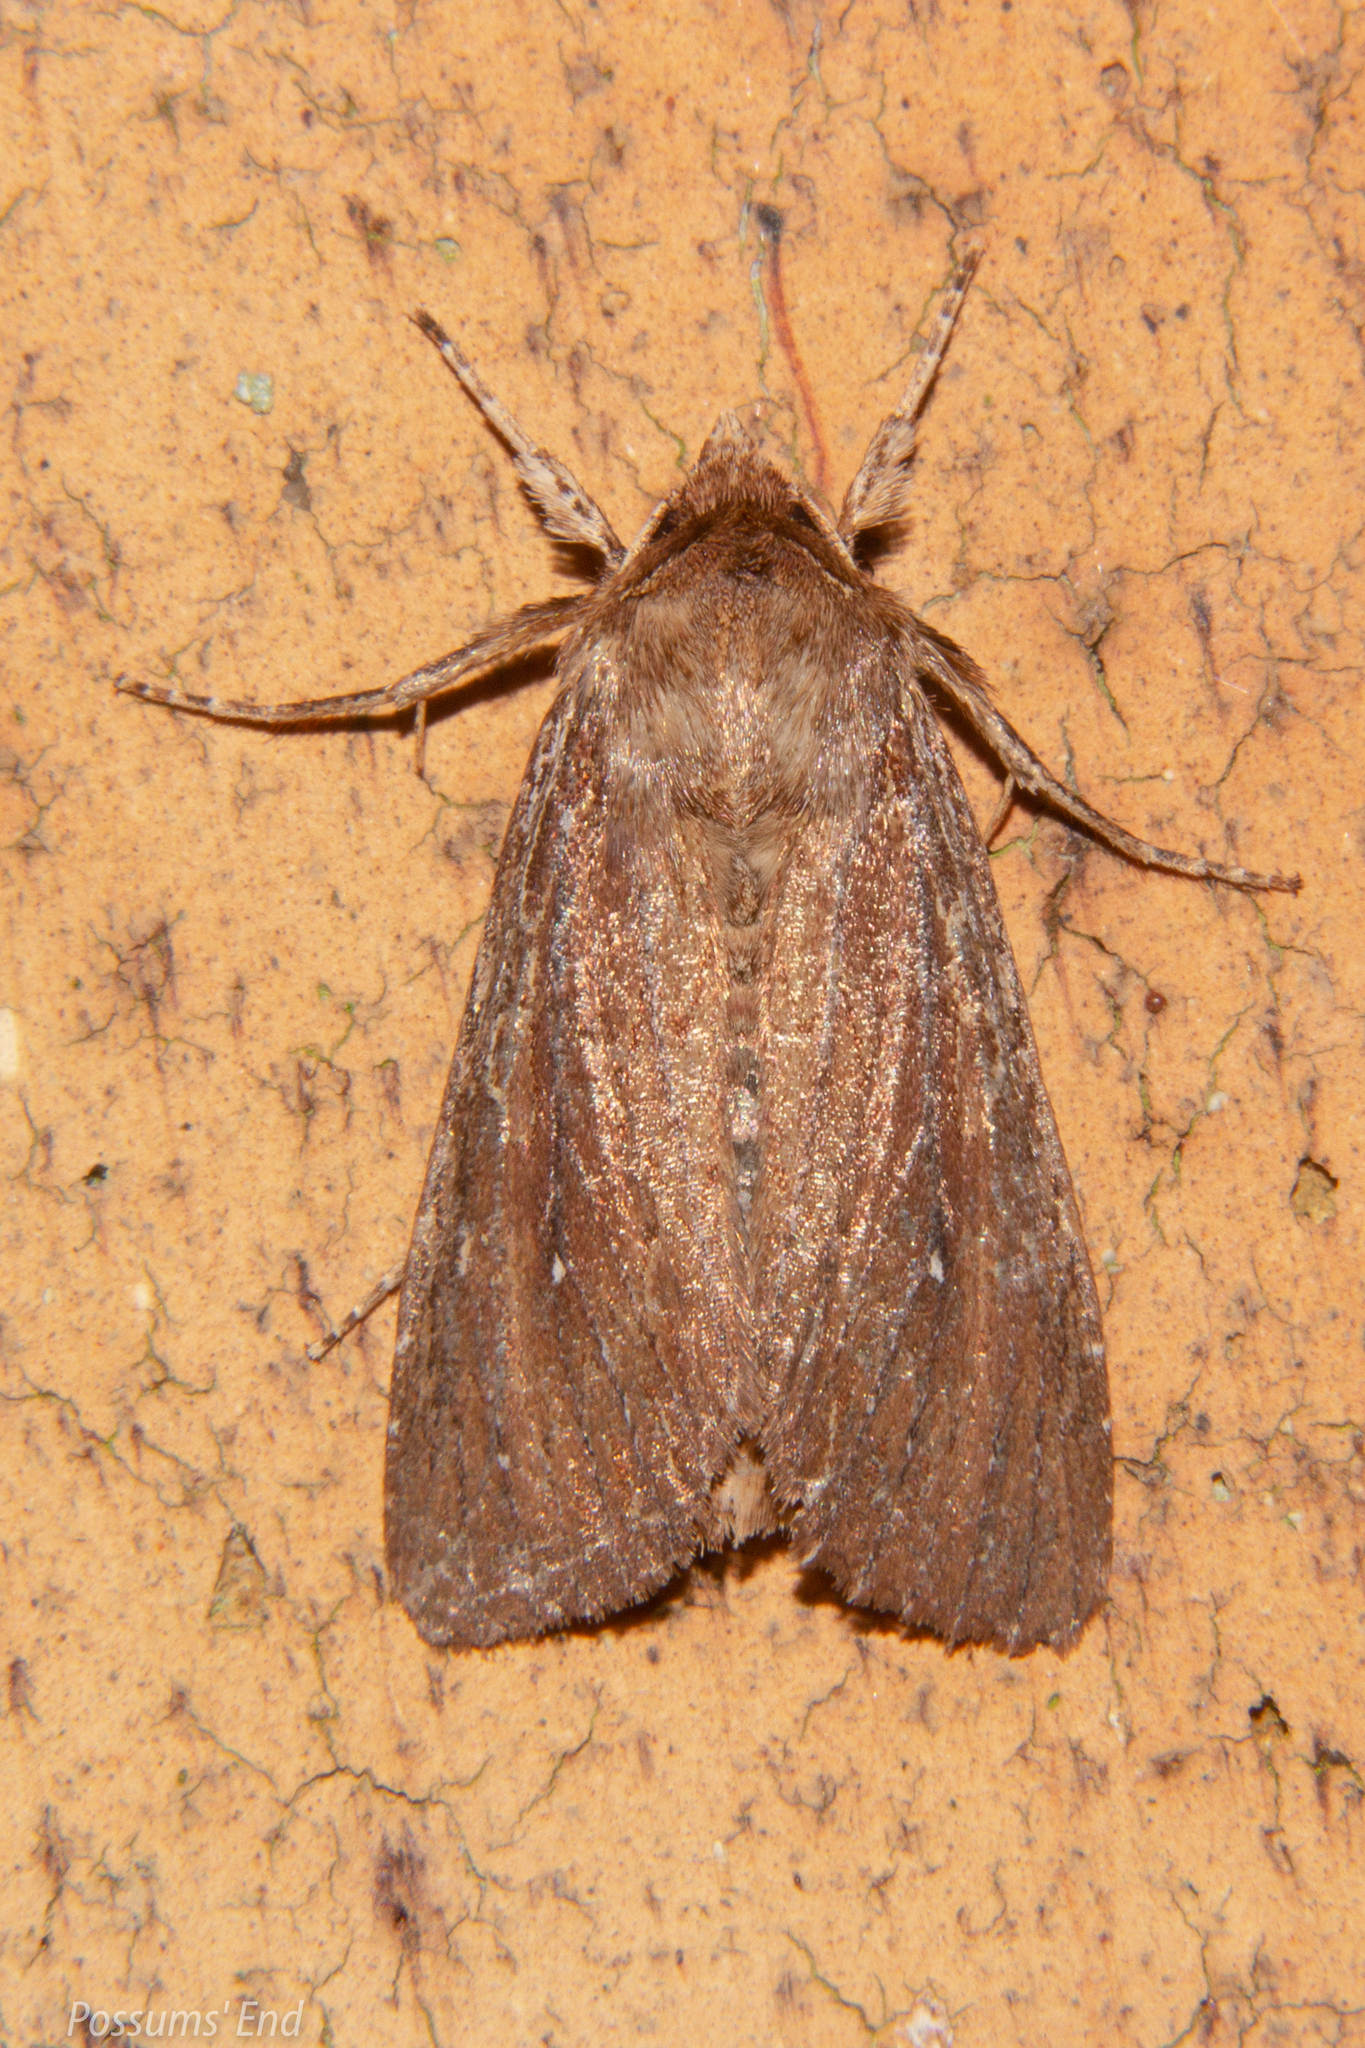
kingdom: Animalia
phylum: Arthropoda
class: Insecta
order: Lepidoptera
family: Noctuidae
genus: Ichneutica
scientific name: Ichneutica
